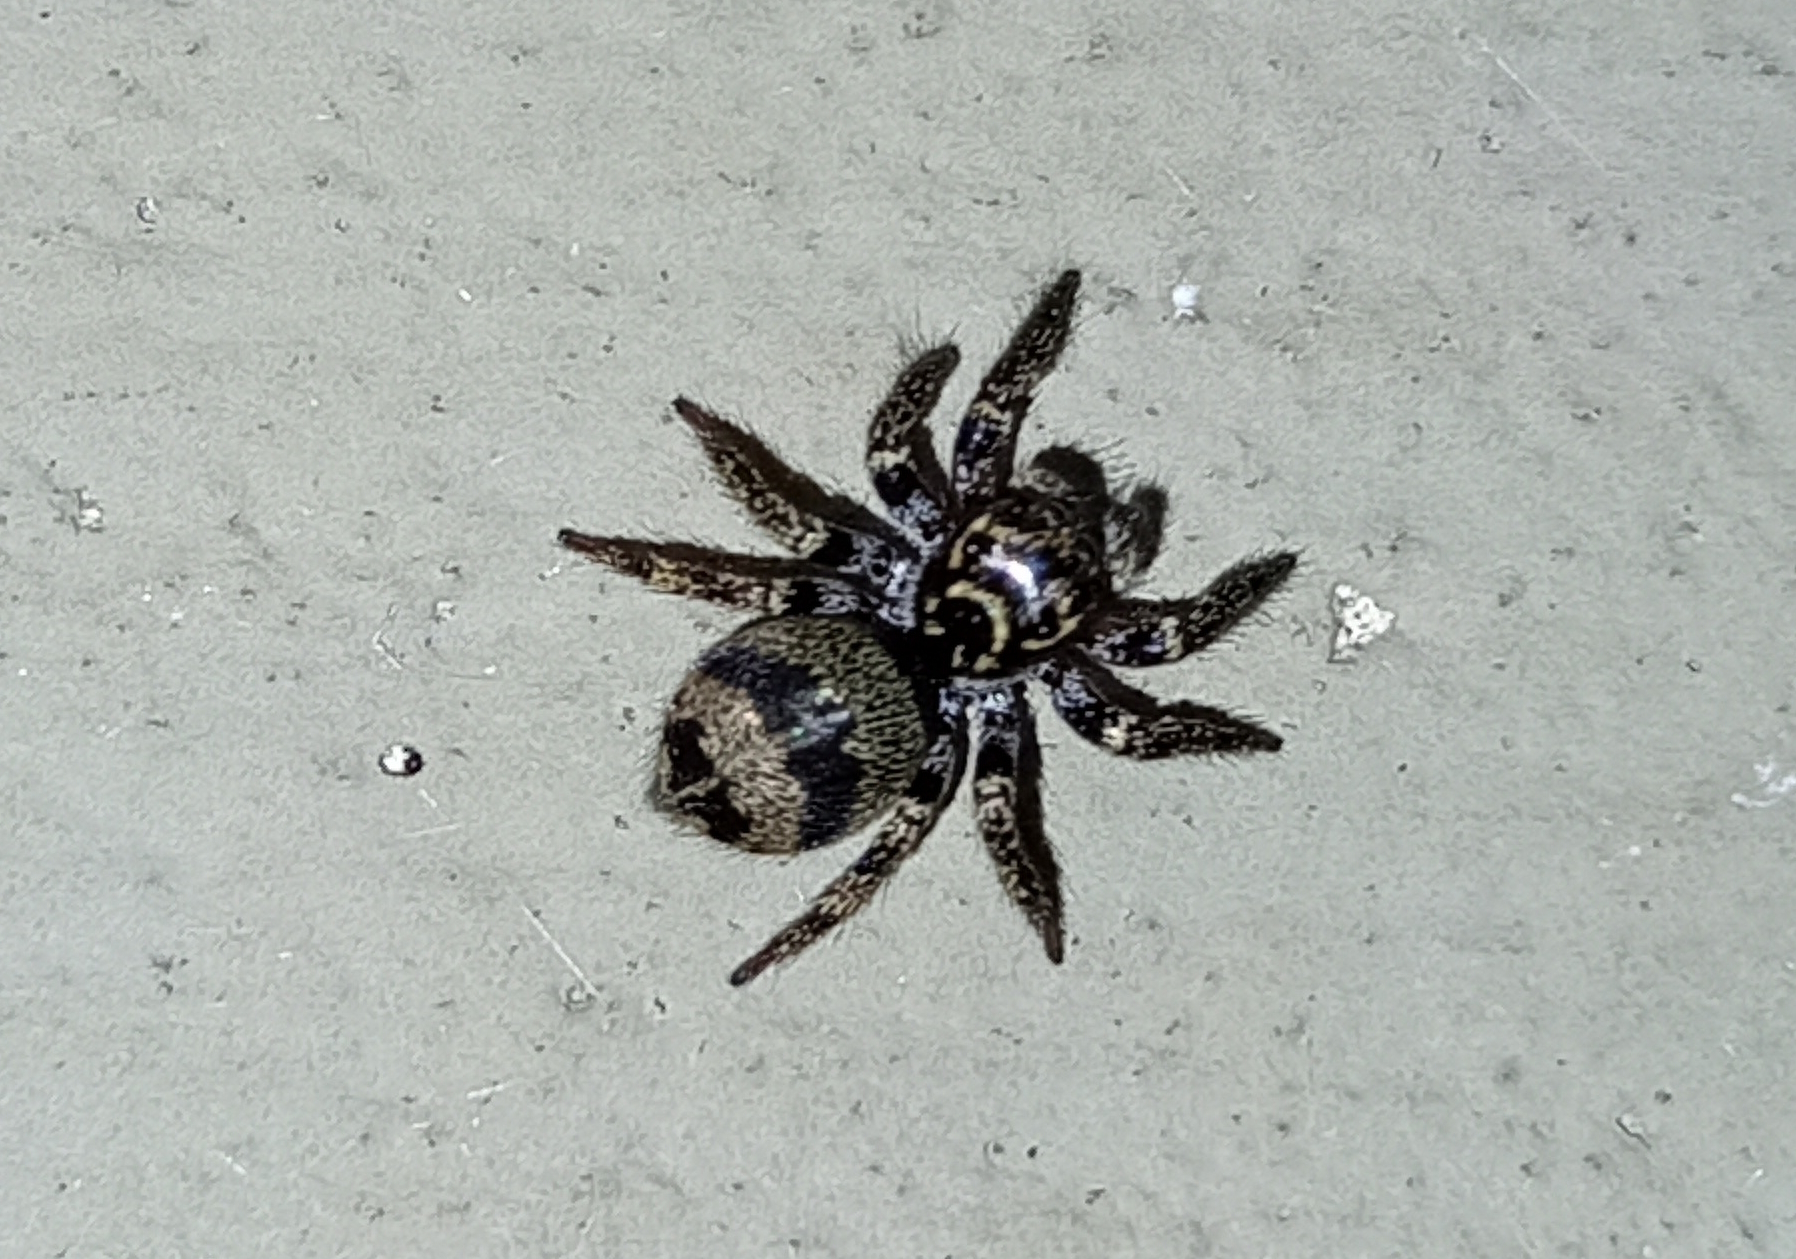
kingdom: Animalia
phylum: Arthropoda
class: Arachnida
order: Araneae
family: Salticidae
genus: Corythalia
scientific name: Corythalia conferta
